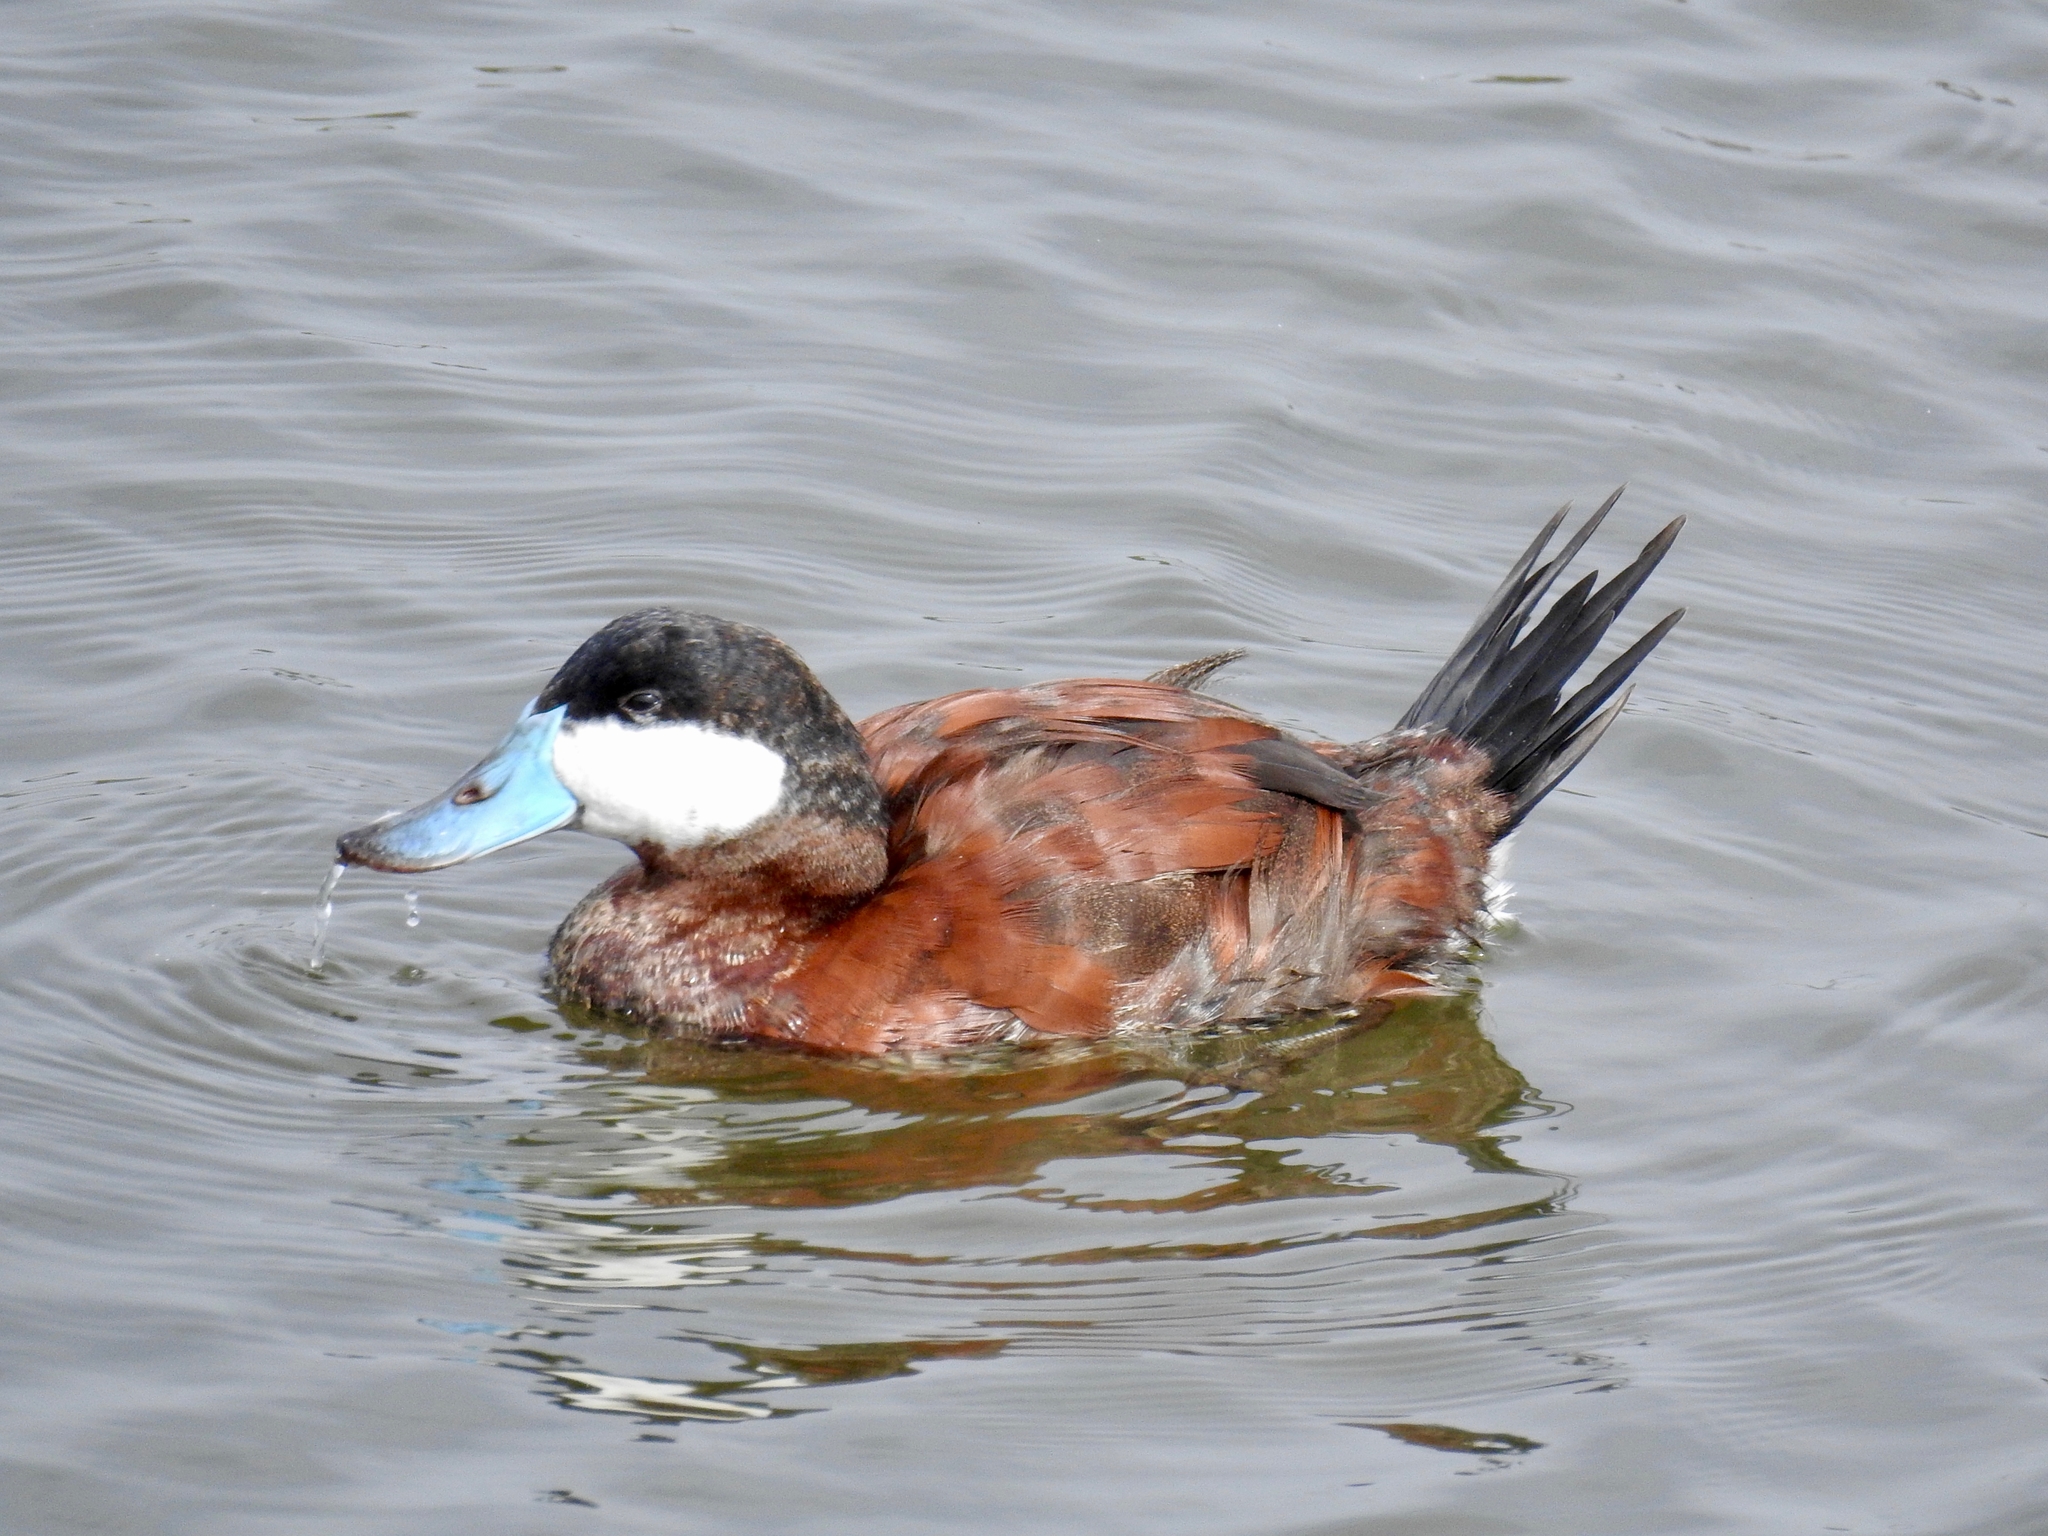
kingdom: Animalia
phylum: Chordata
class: Aves
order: Anseriformes
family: Anatidae
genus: Oxyura
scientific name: Oxyura jamaicensis
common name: Ruddy duck
